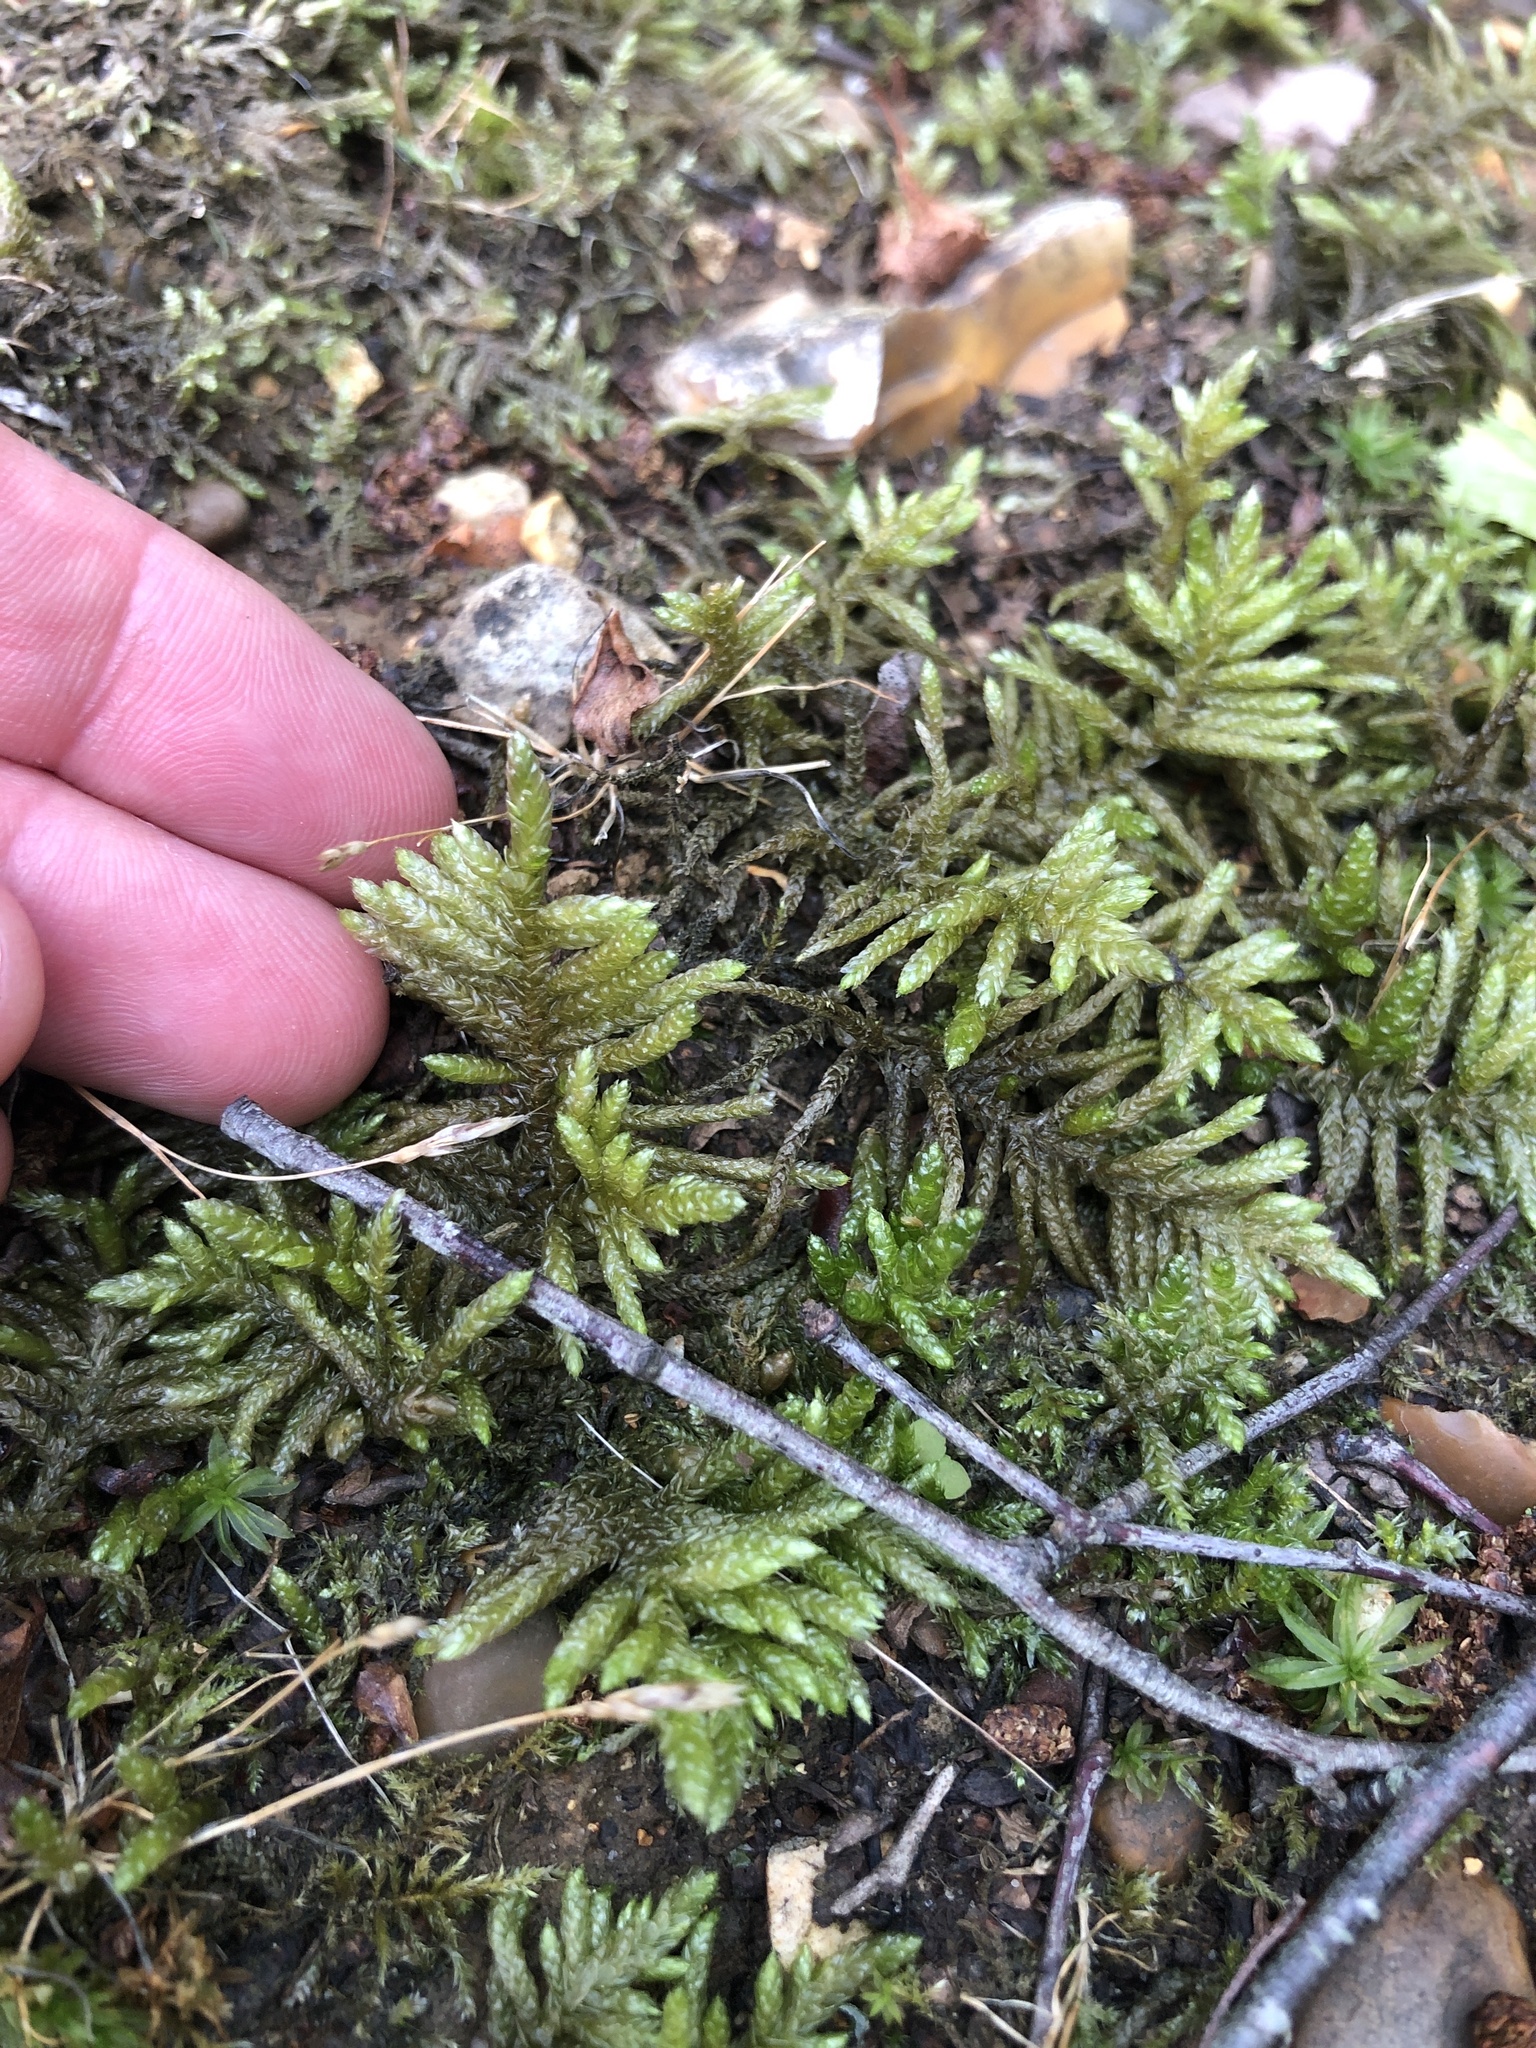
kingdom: Plantae
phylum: Bryophyta
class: Bryopsida
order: Hypnales
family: Brachytheciaceae
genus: Pseudoscleropodium
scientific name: Pseudoscleropodium purum
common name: Neat feather-moss
